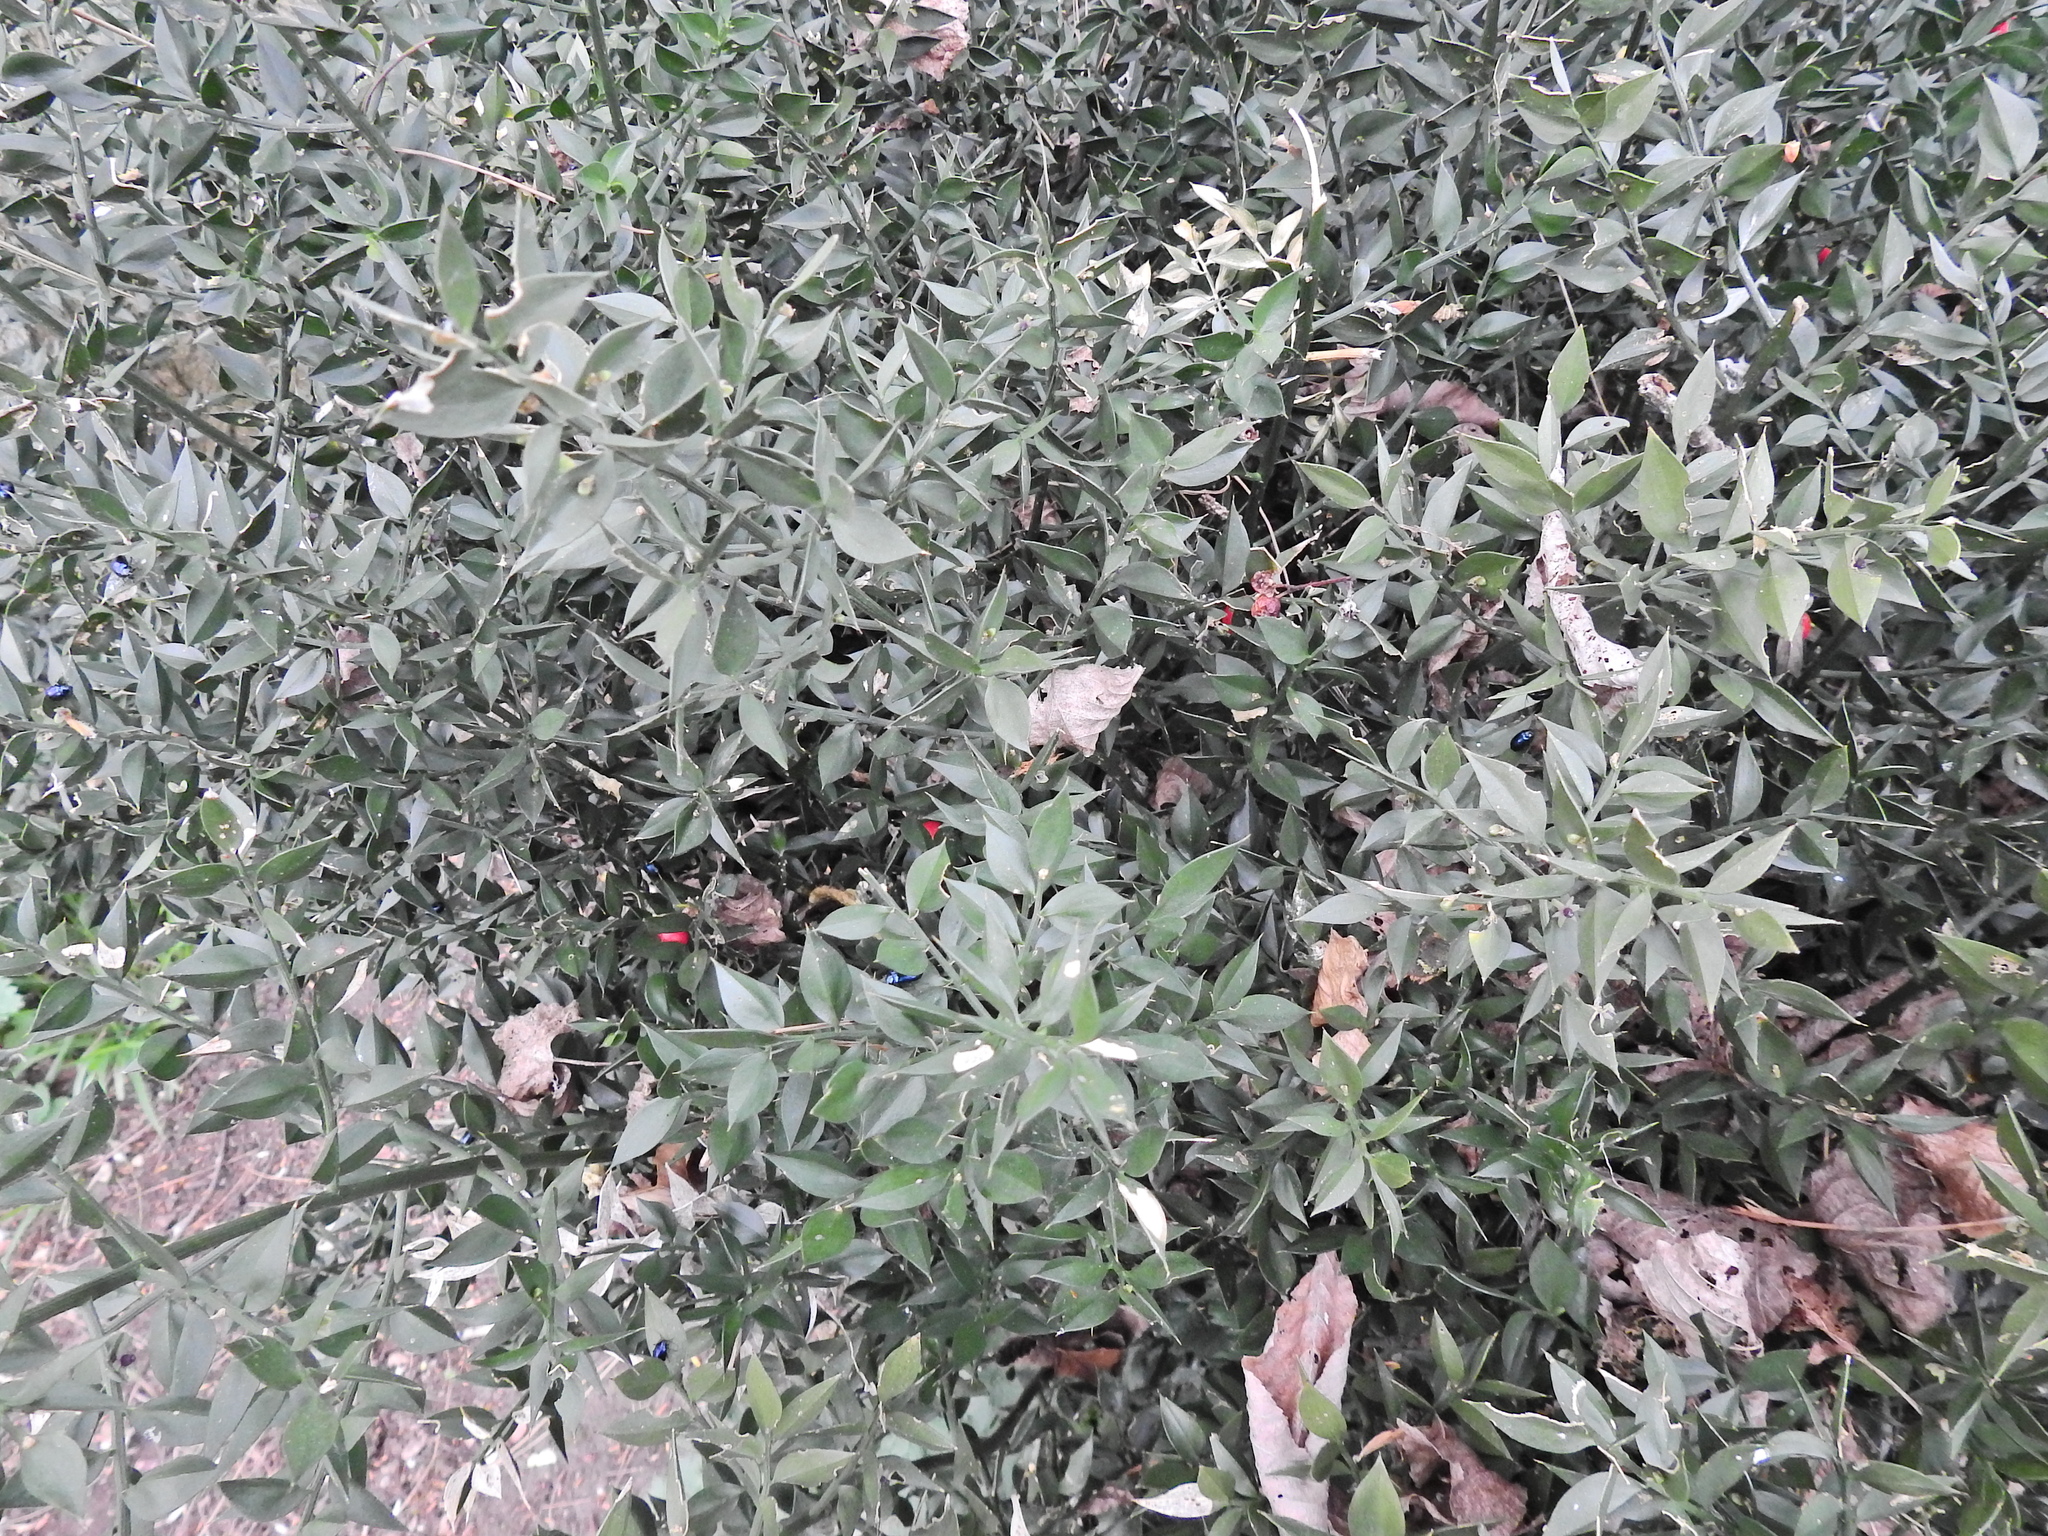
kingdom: Plantae
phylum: Tracheophyta
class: Liliopsida
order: Asparagales
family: Asparagaceae
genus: Ruscus
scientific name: Ruscus aculeatus
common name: Butcher's-broom
